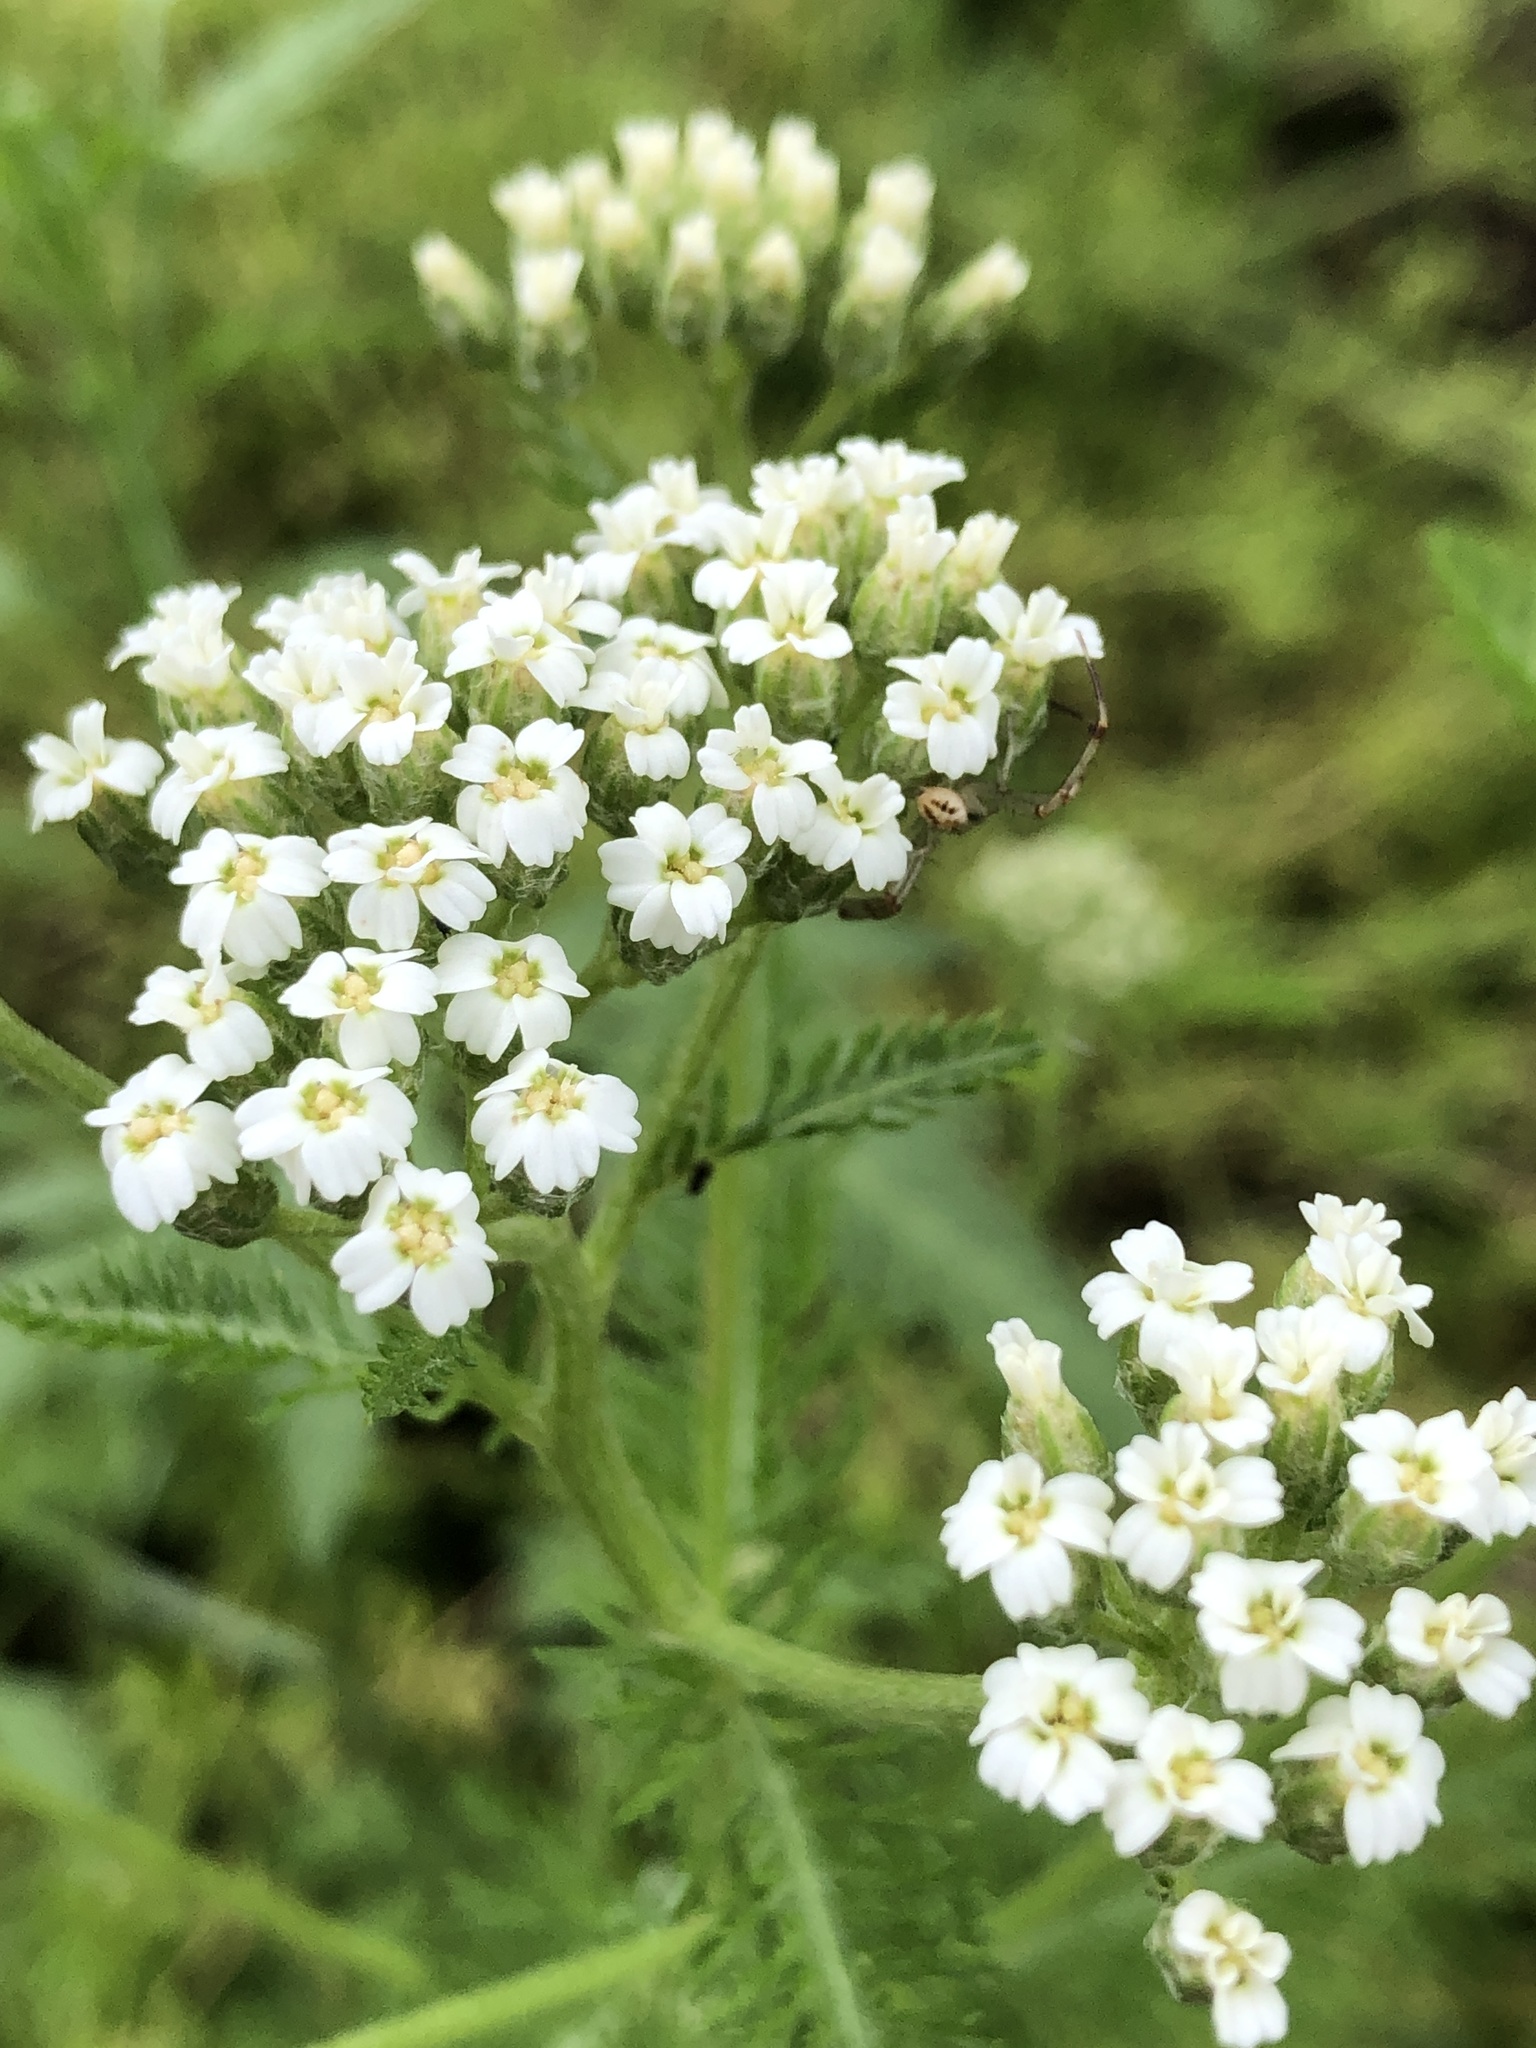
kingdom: Plantae
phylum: Tracheophyta
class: Magnoliopsida
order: Asterales
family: Asteraceae
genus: Achillea
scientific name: Achillea millefolium
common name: Yarrow
